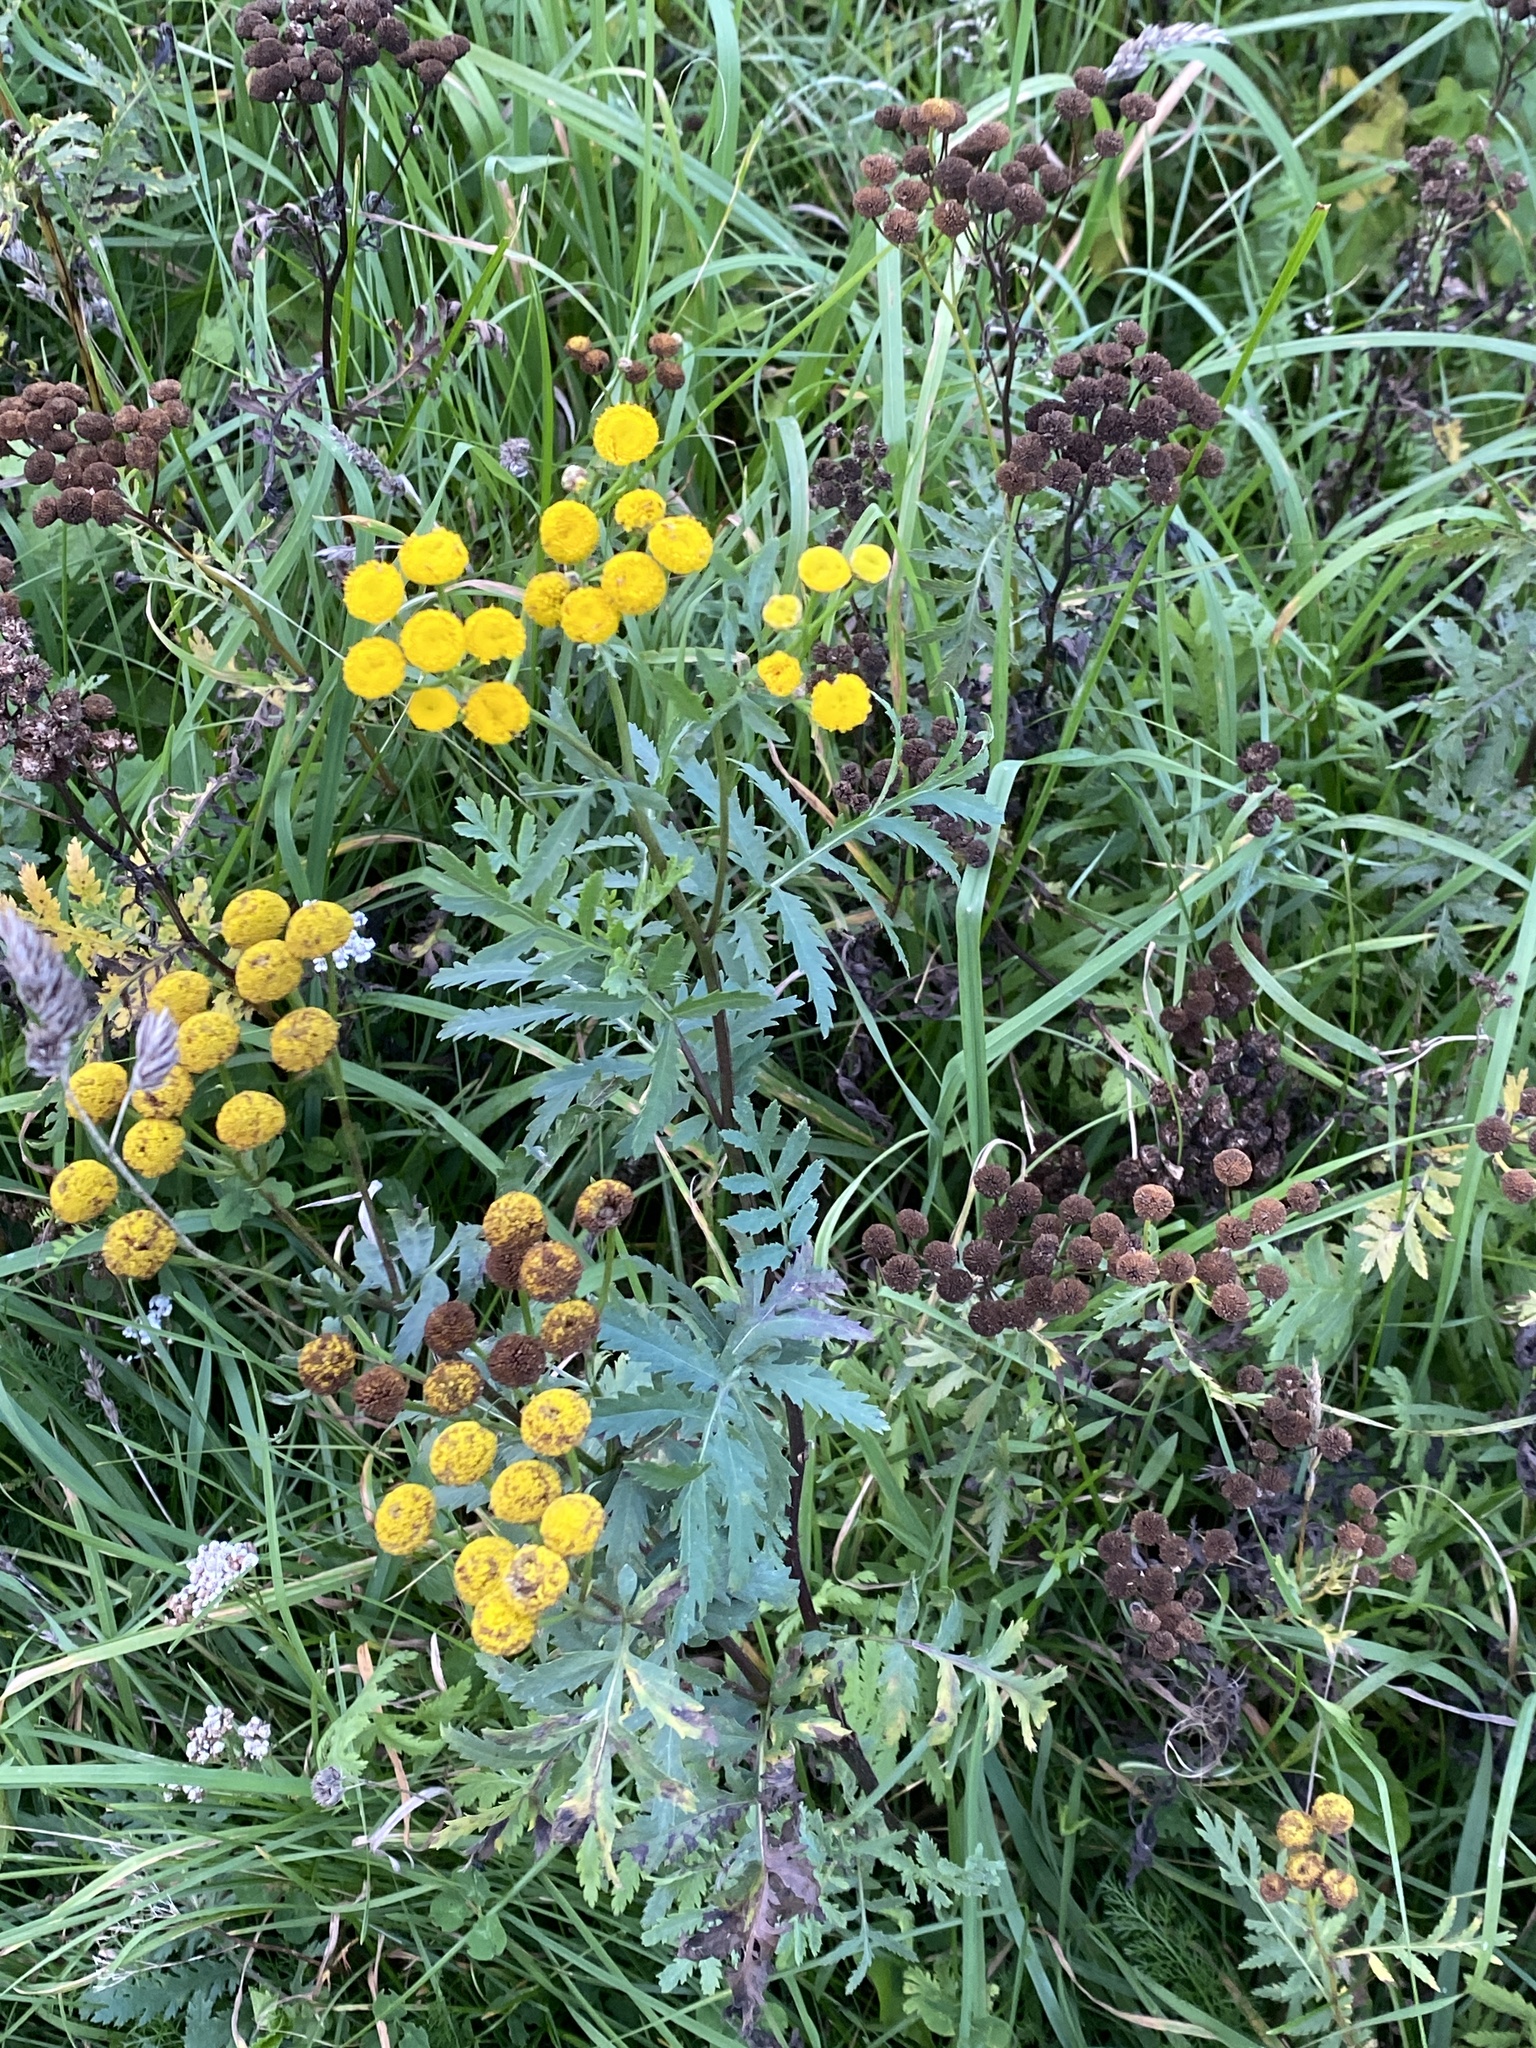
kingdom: Plantae
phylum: Tracheophyta
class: Magnoliopsida
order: Asterales
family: Asteraceae
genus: Tanacetum
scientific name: Tanacetum vulgare
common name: Common tansy
